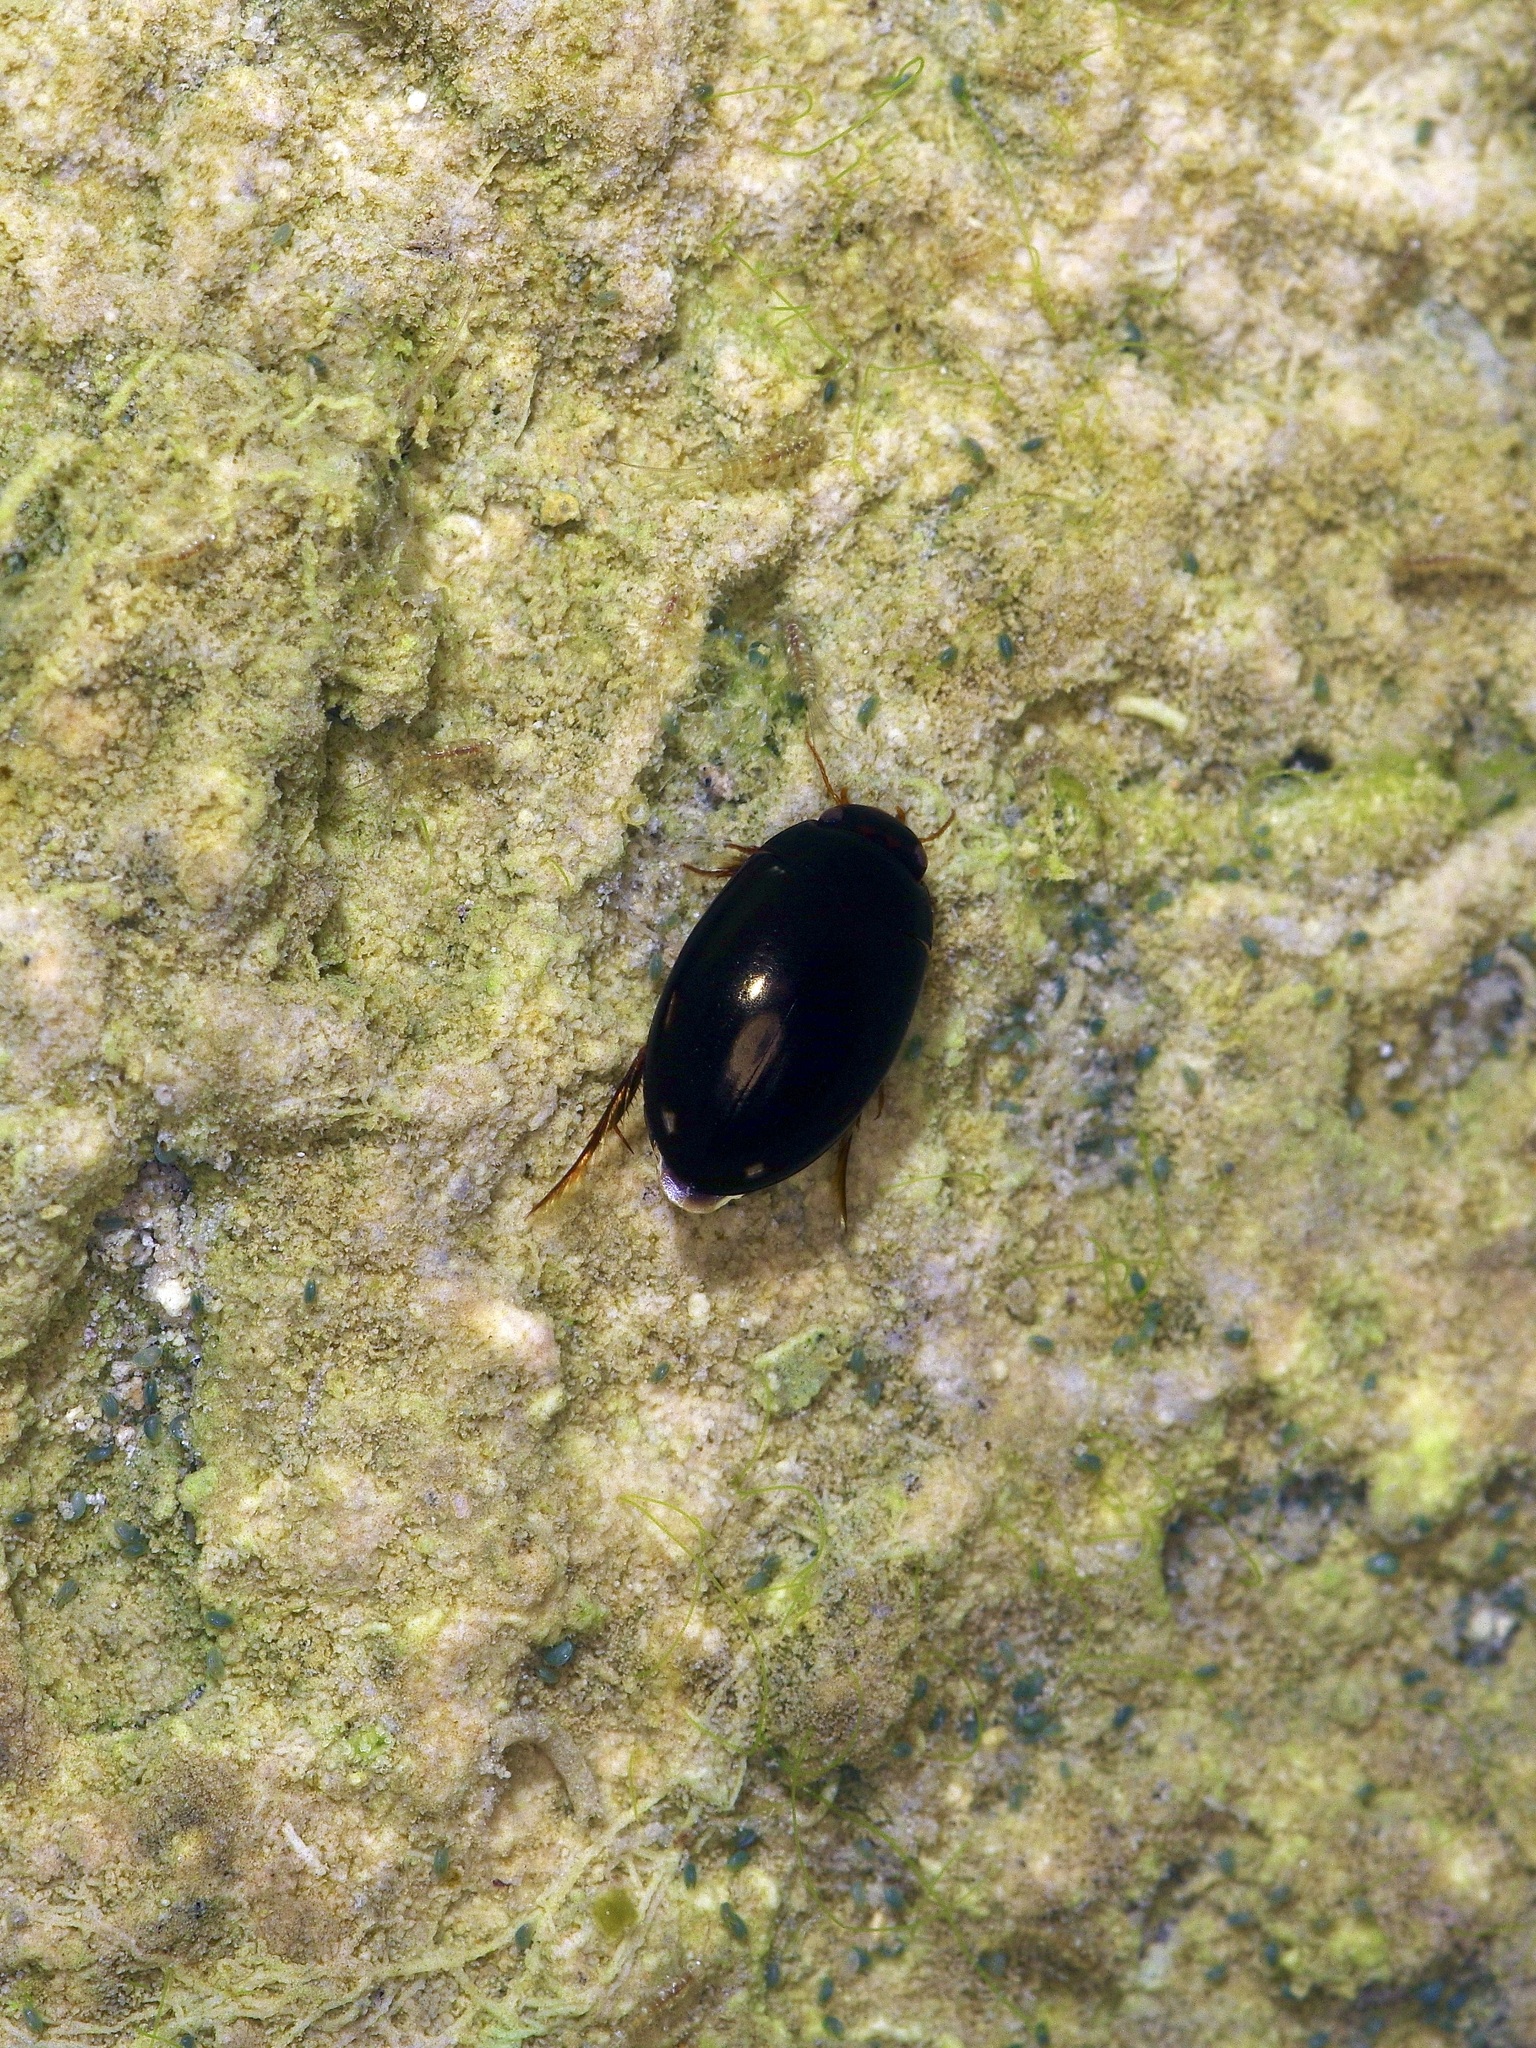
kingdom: Animalia
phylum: Arthropoda
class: Insecta
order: Coleoptera
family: Dytiscidae
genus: Platambus
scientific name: Platambus
